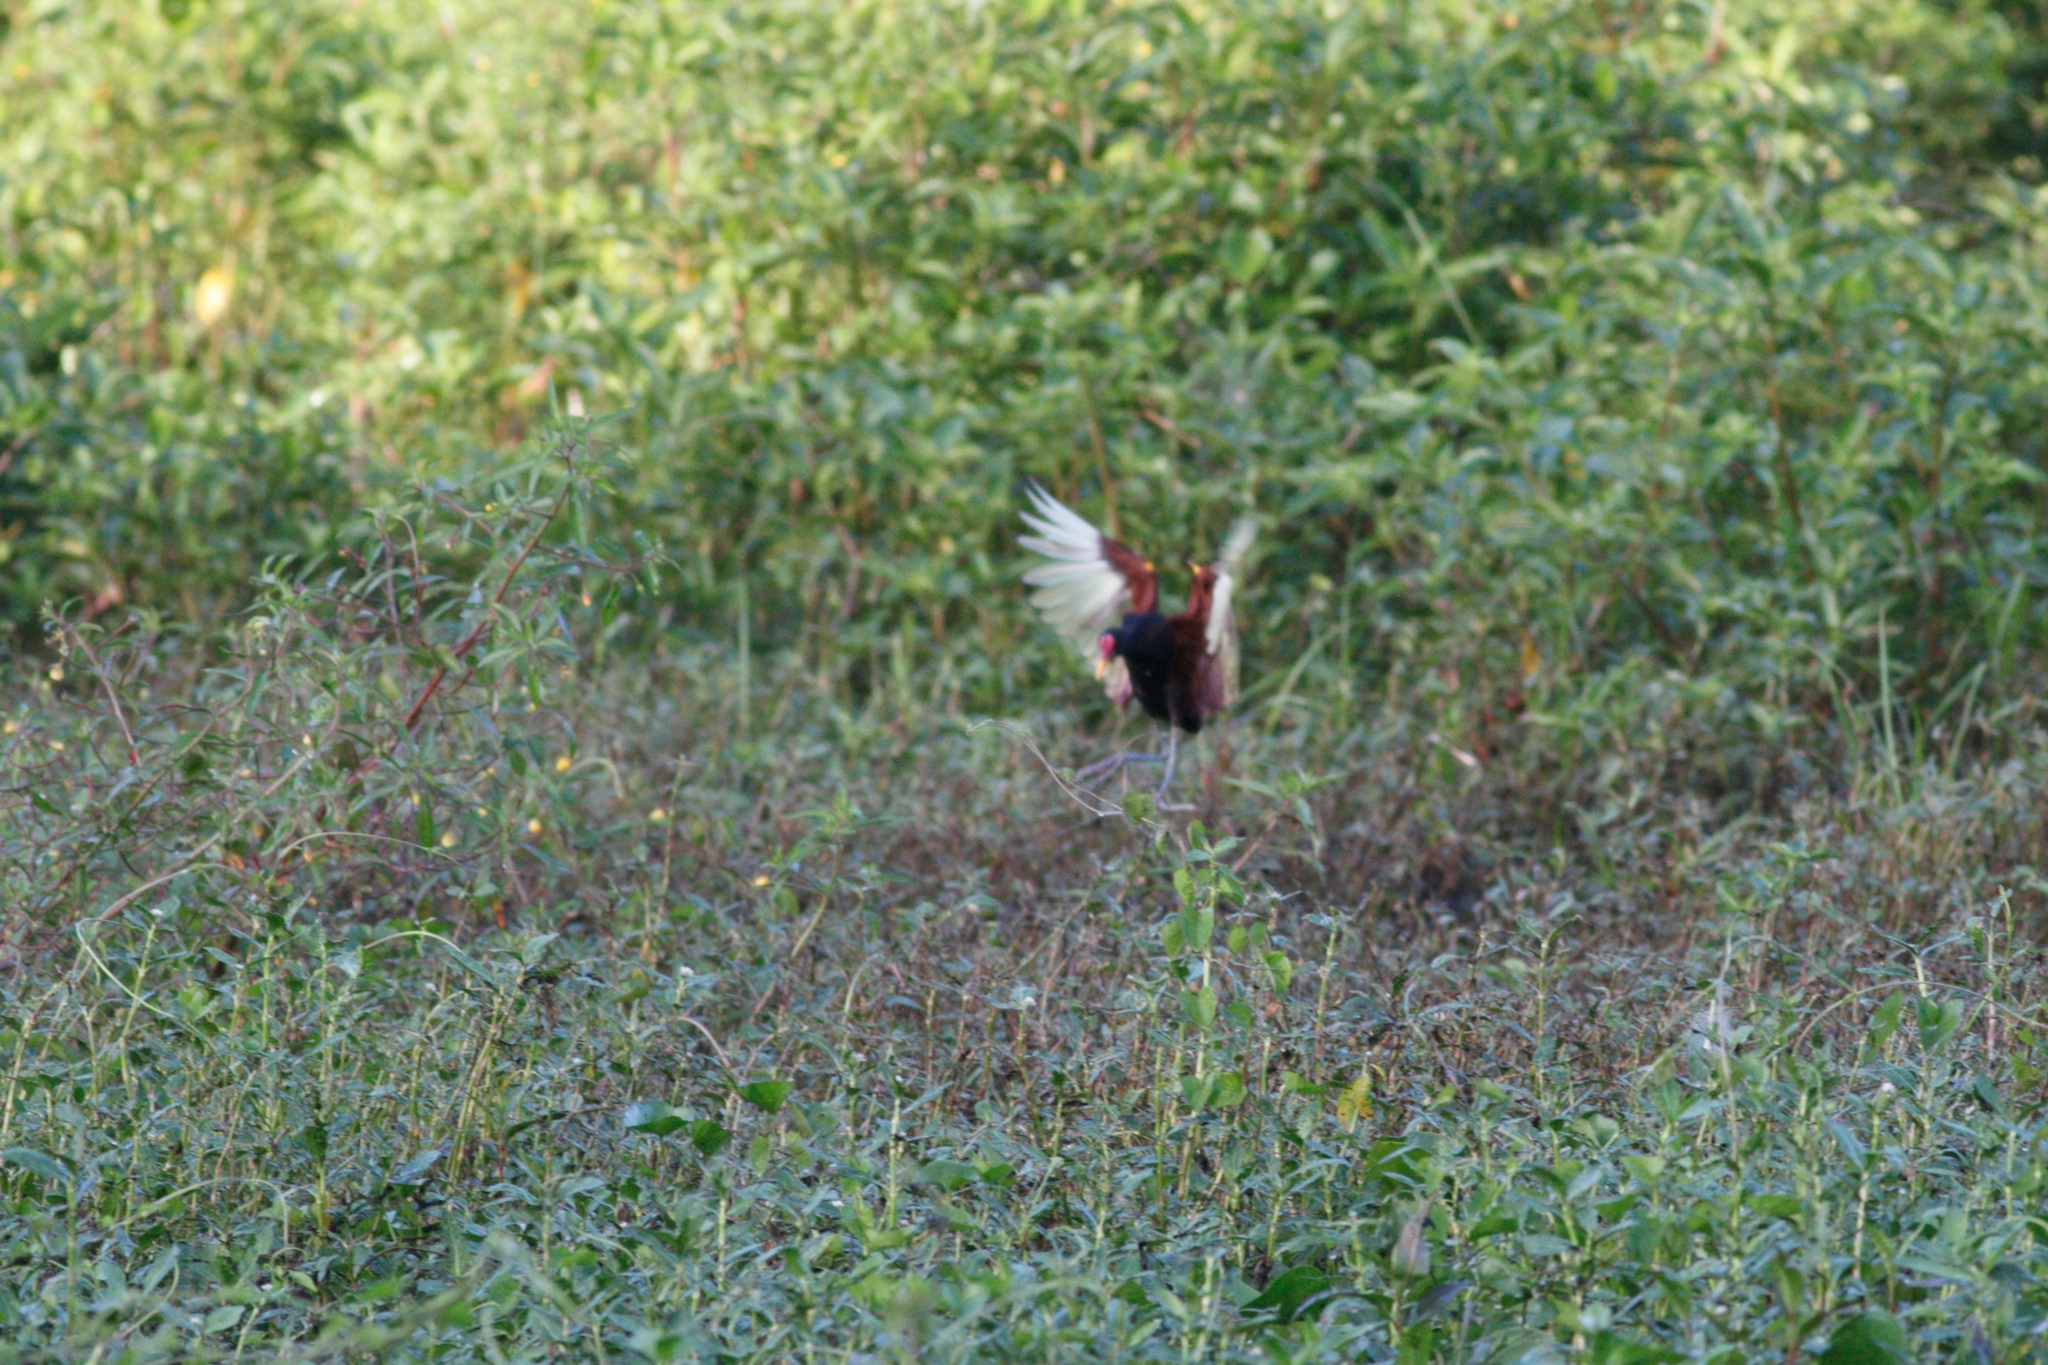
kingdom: Animalia
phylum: Chordata
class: Aves
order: Charadriiformes
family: Jacanidae
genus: Jacana
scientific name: Jacana jacana
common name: Wattled jacana
